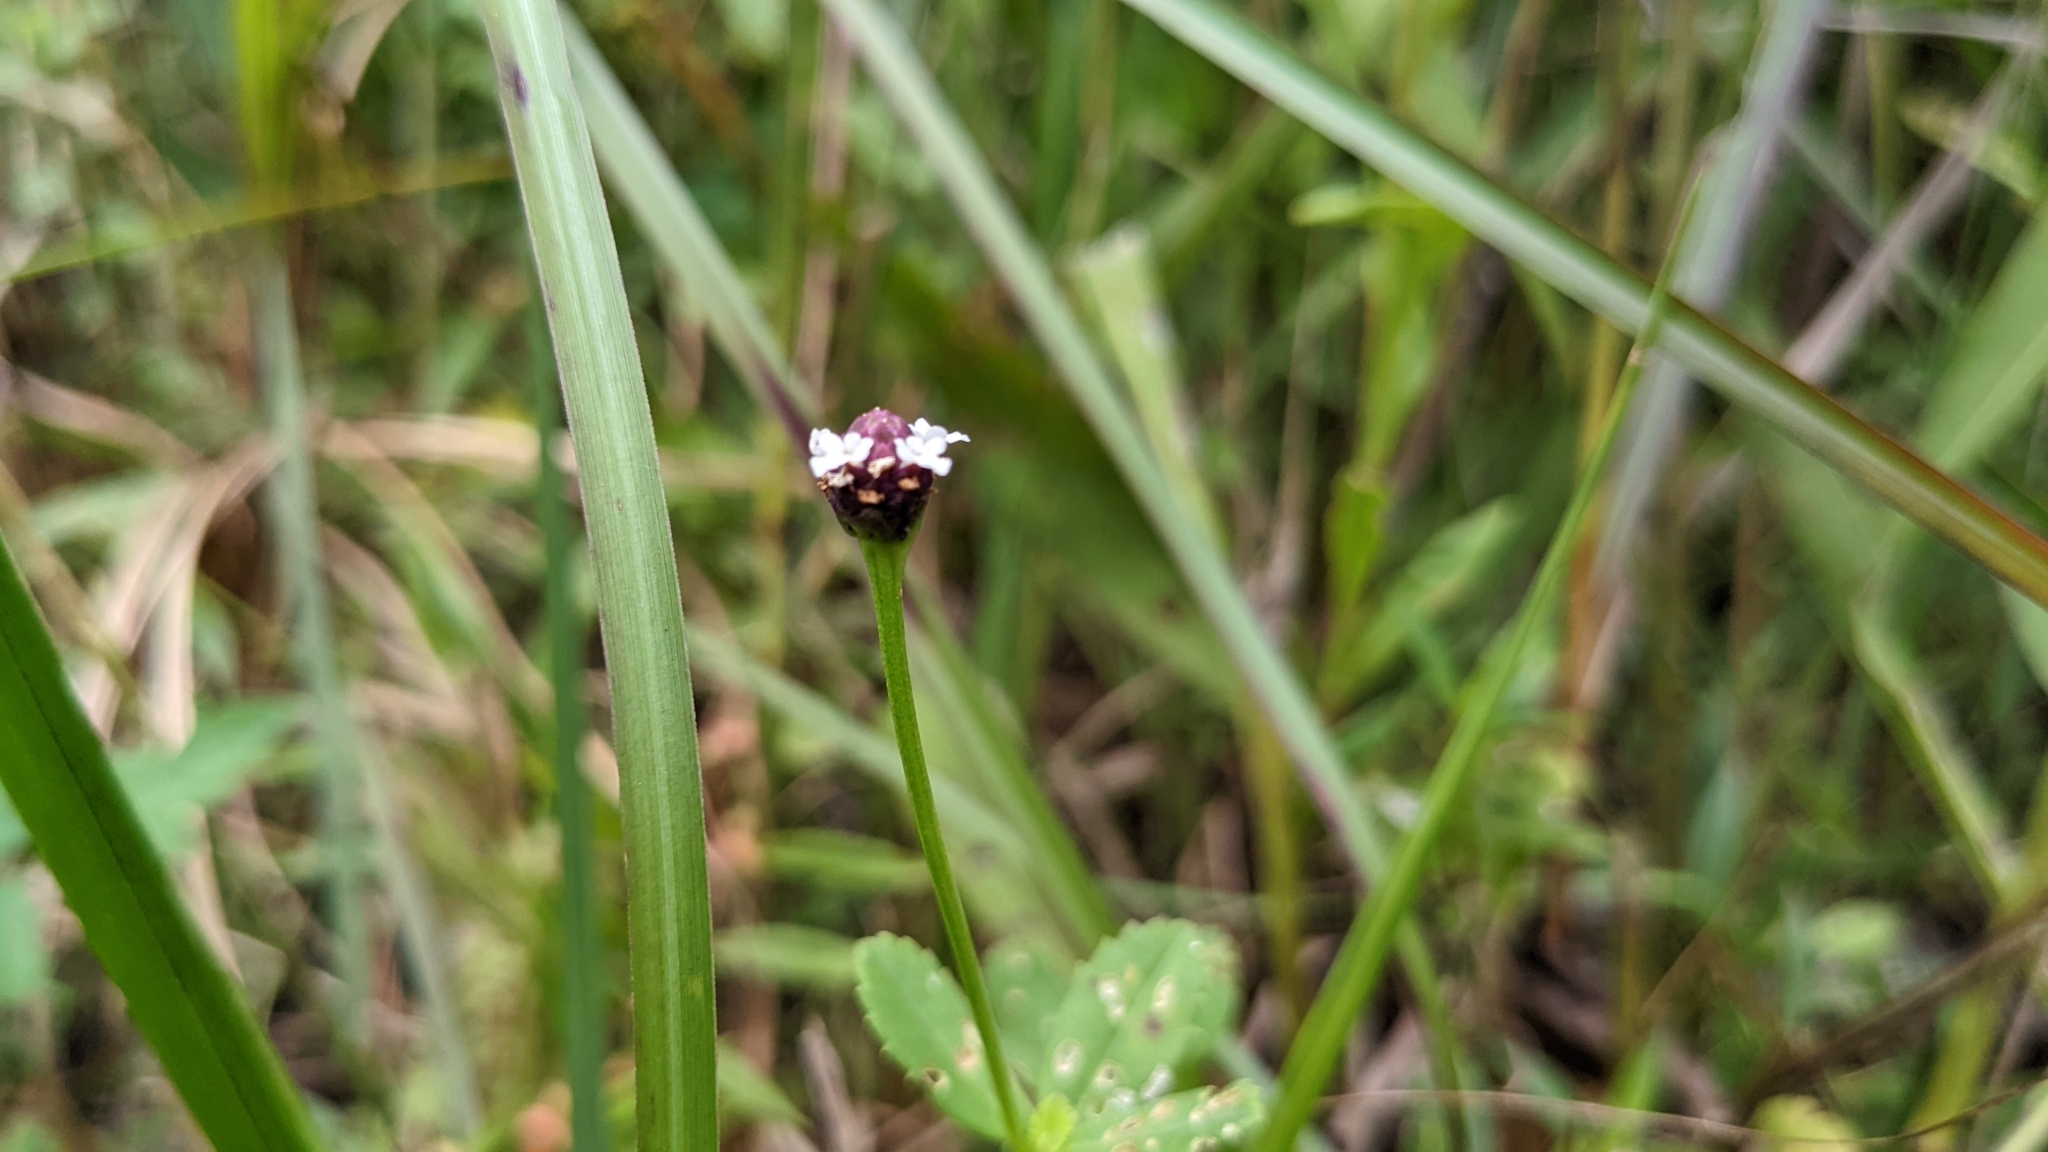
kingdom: Plantae
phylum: Tracheophyta
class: Magnoliopsida
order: Lamiales
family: Verbenaceae
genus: Phyla
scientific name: Phyla nodiflora
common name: Frogfruit
